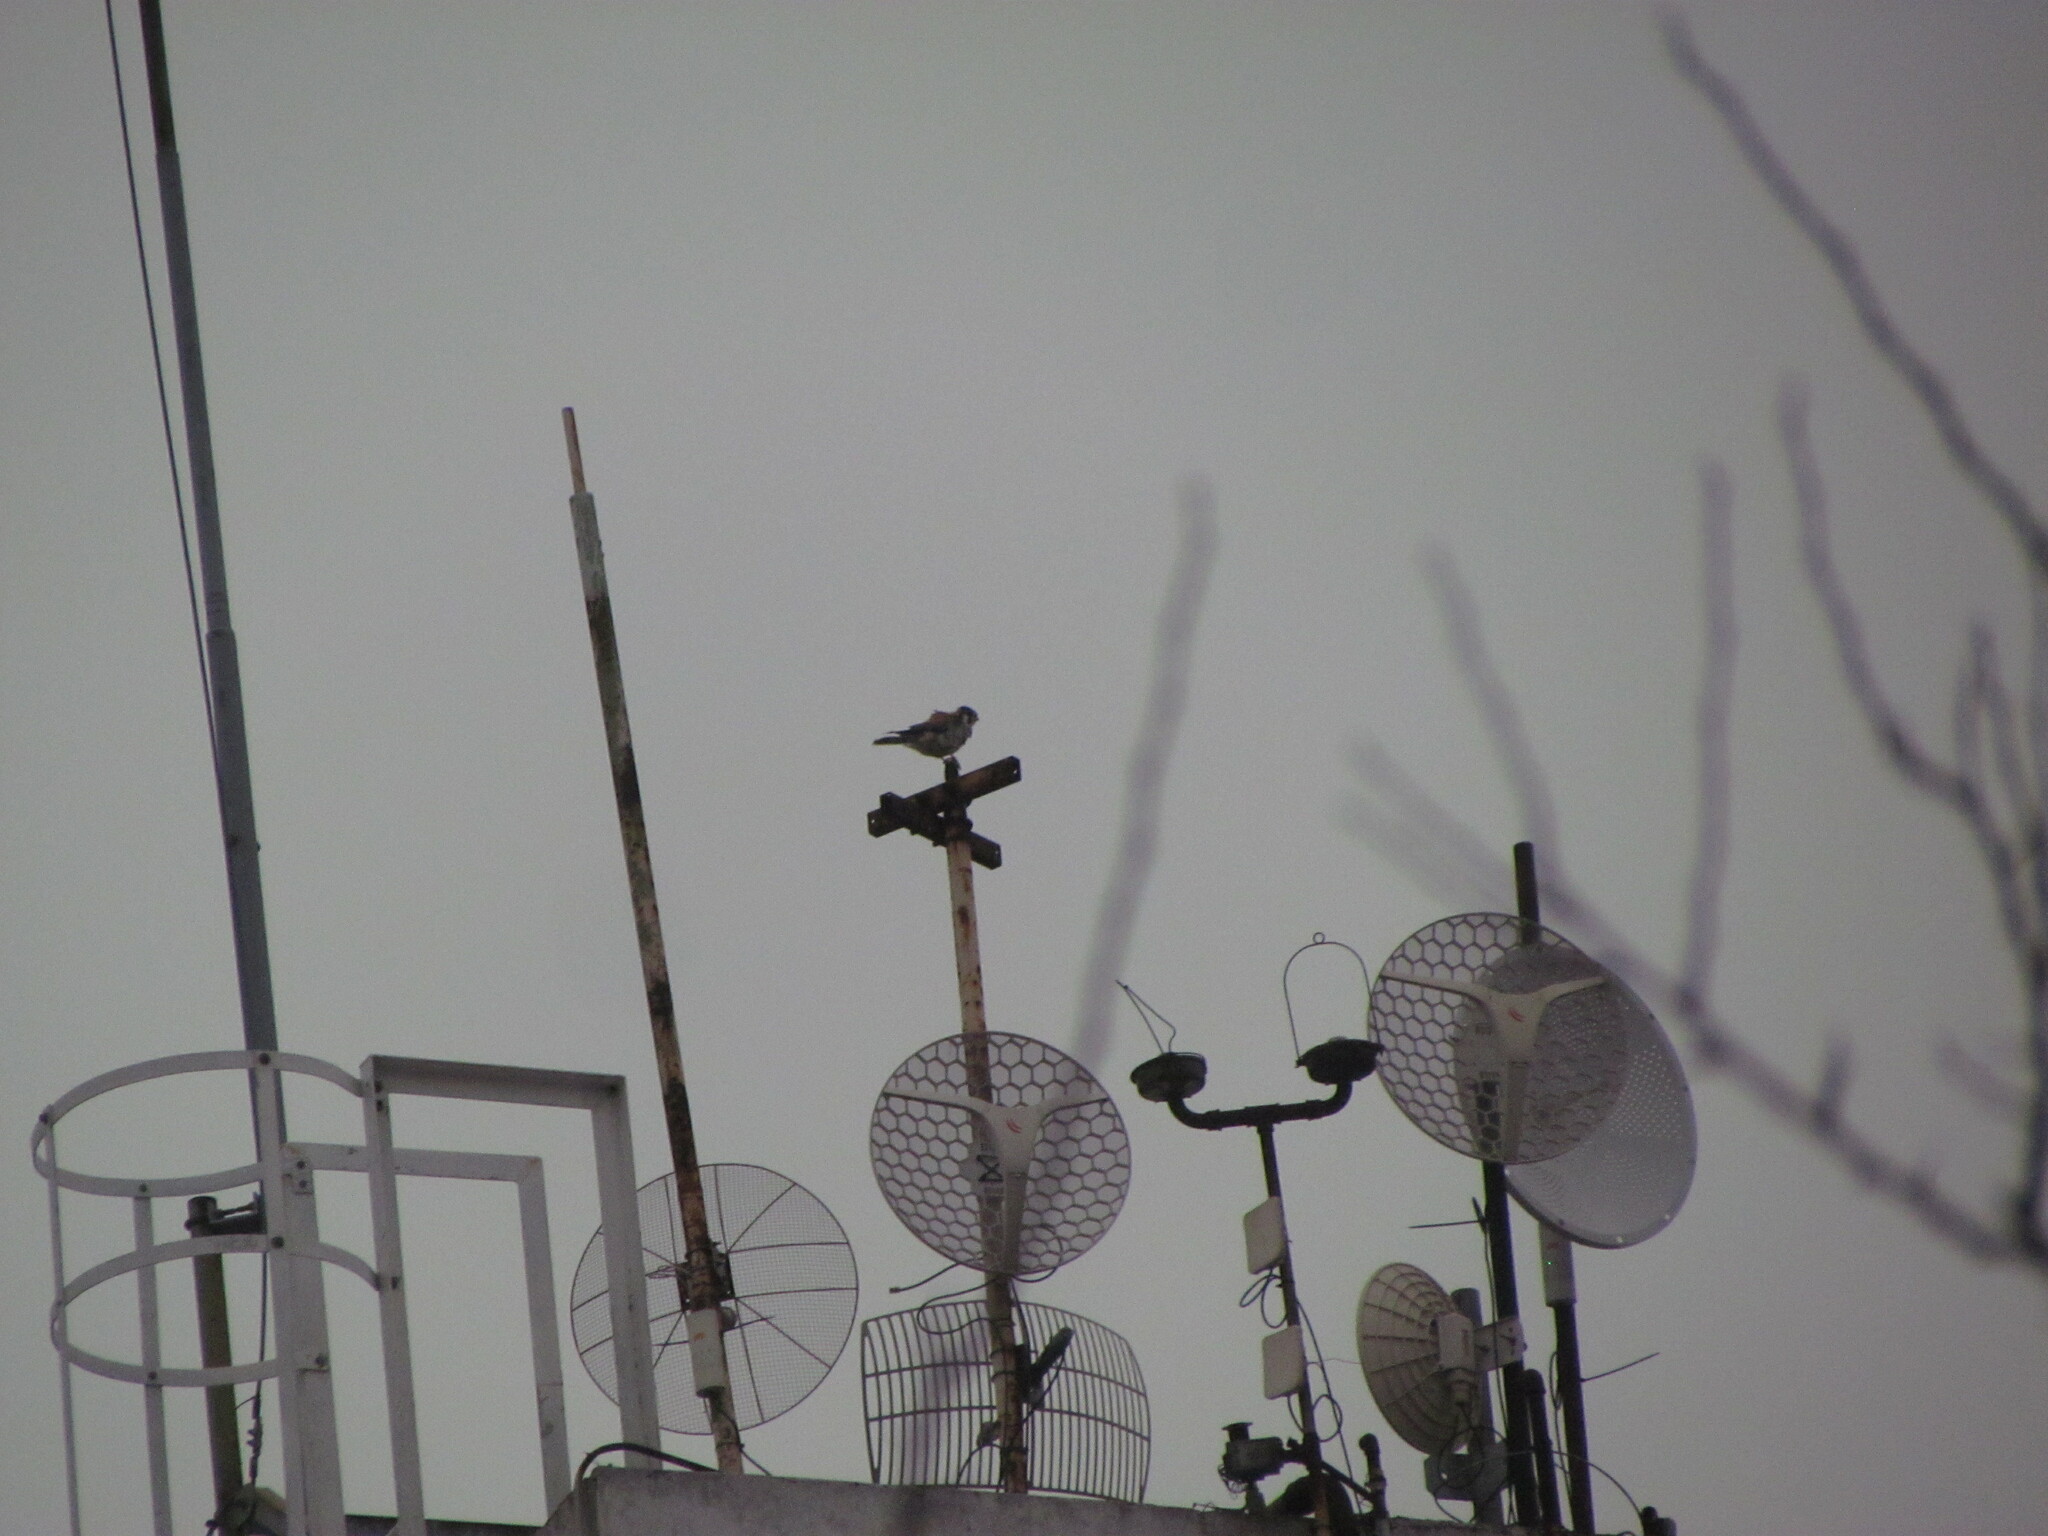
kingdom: Animalia
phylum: Chordata
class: Aves
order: Falconiformes
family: Falconidae
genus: Falco
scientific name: Falco sparverius
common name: American kestrel
